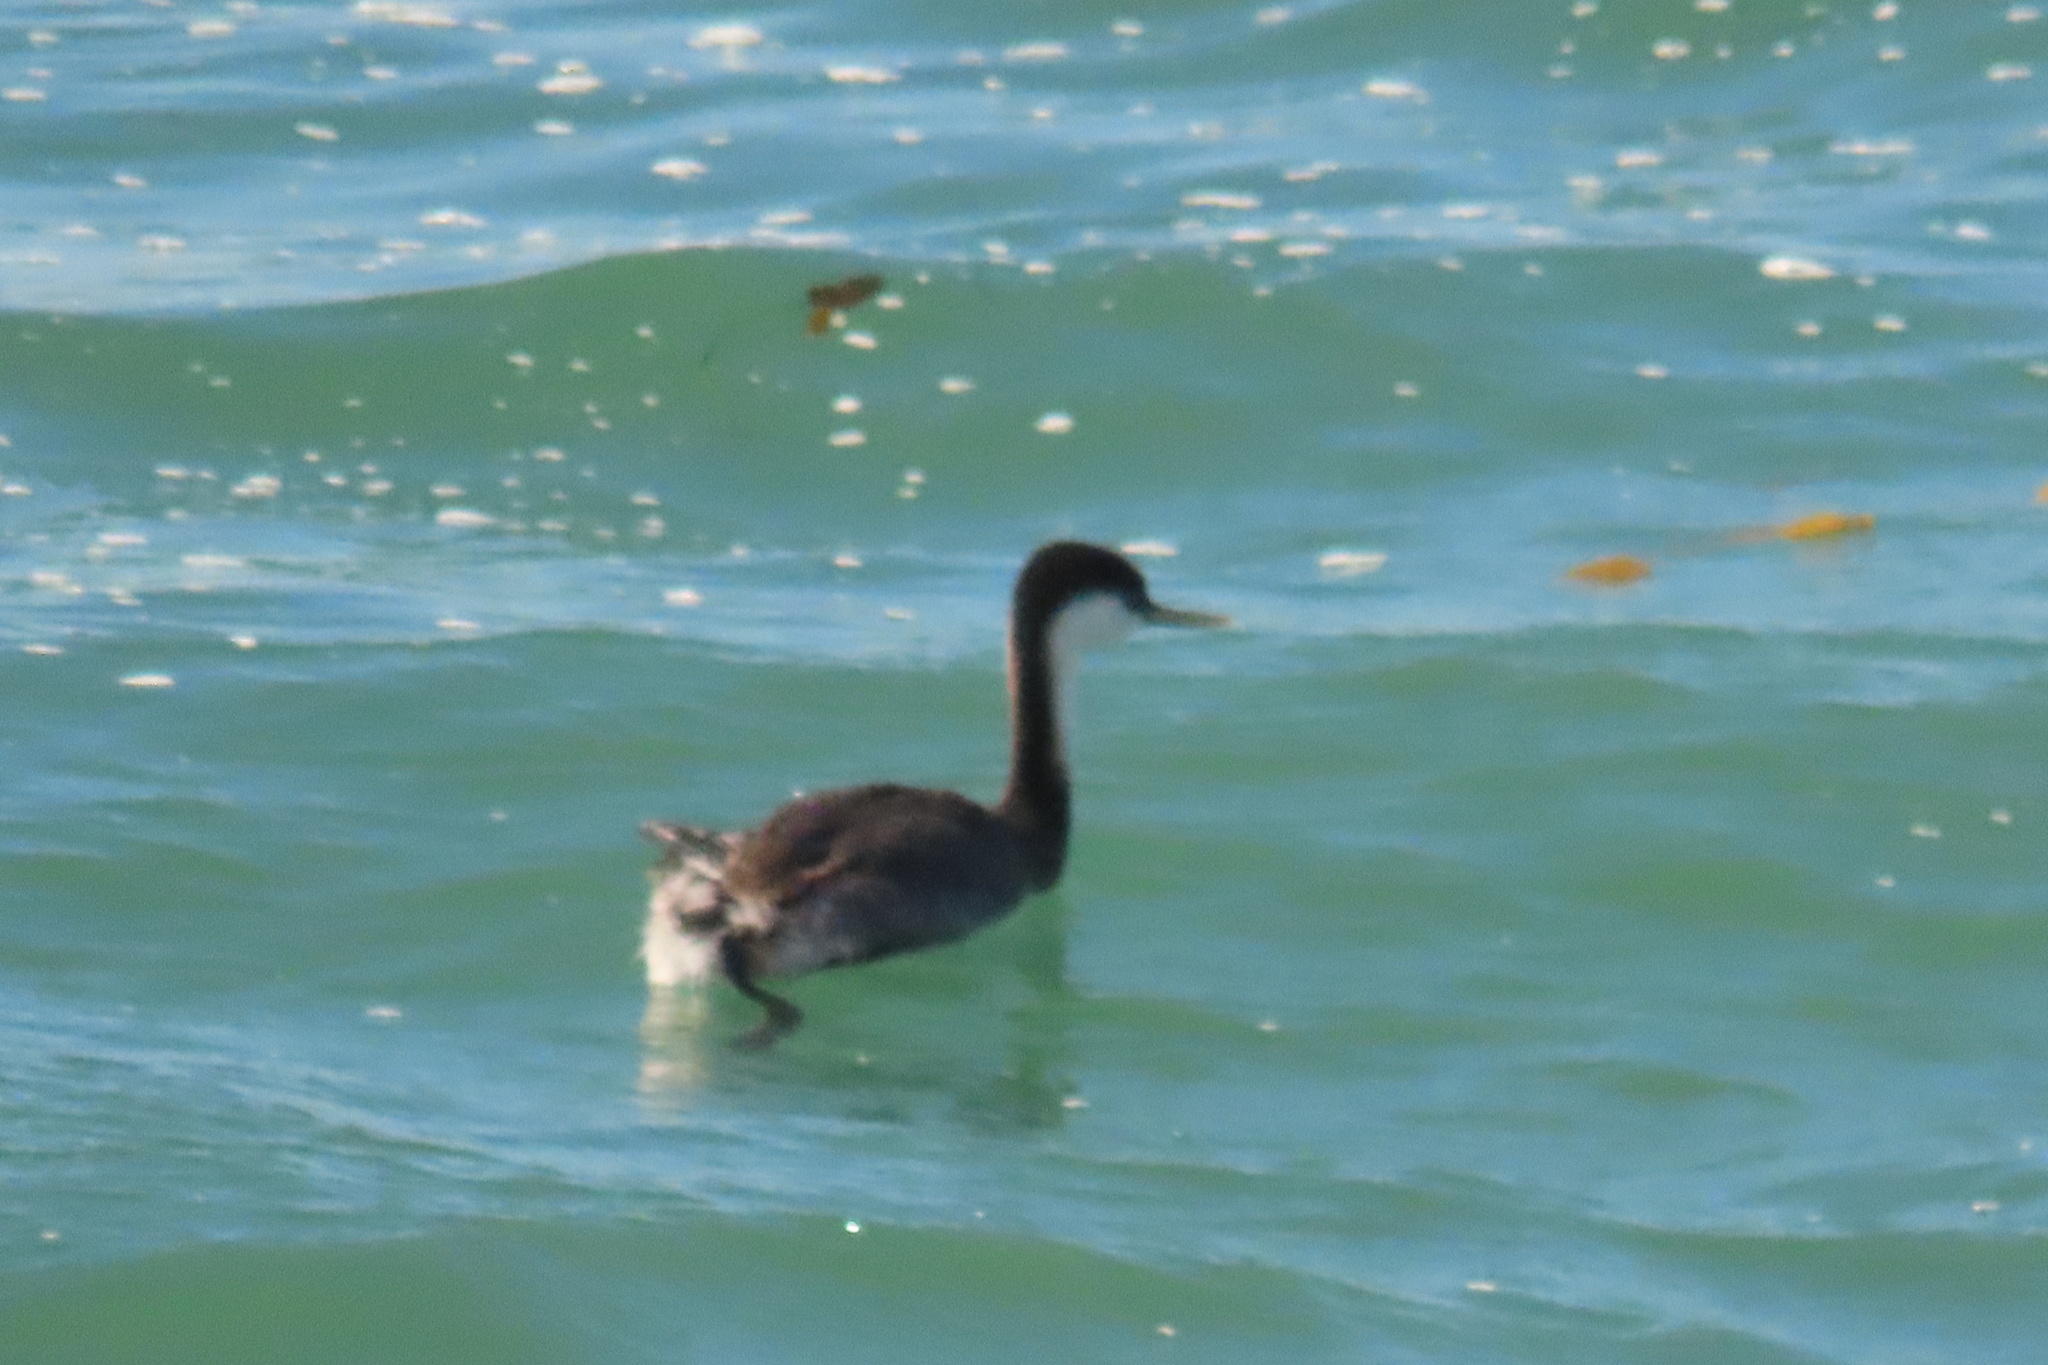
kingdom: Animalia
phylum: Chordata
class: Aves
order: Podicipediformes
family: Podicipedidae
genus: Aechmophorus
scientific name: Aechmophorus occidentalis
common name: Western grebe
